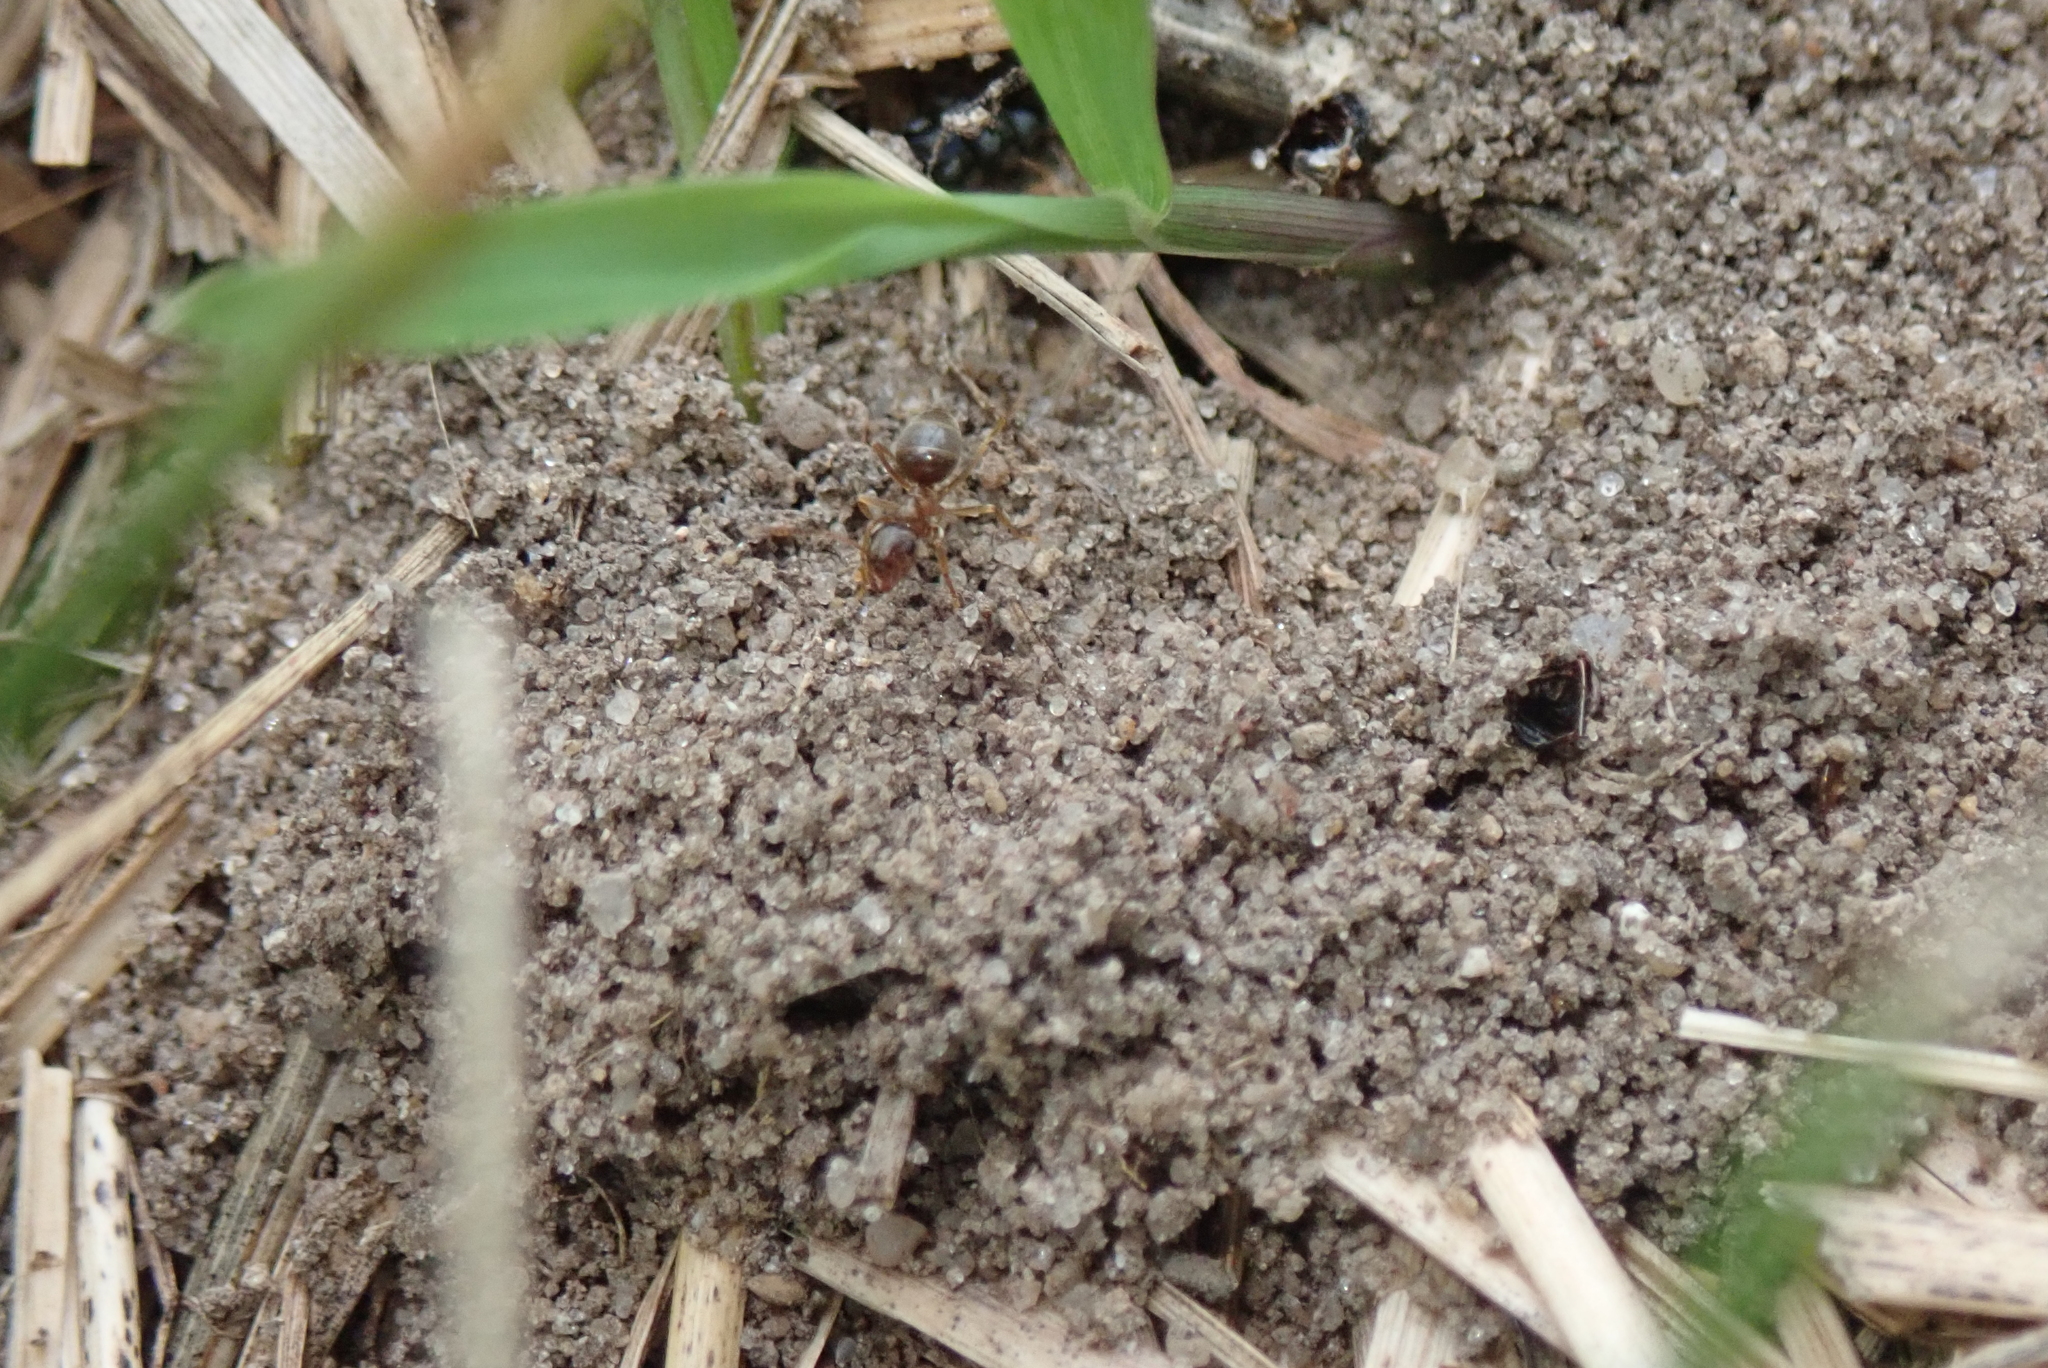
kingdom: Animalia
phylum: Arthropoda
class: Insecta
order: Hymenoptera
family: Formicidae
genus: Lasius
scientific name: Lasius neoniger
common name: Turfgrass ant
